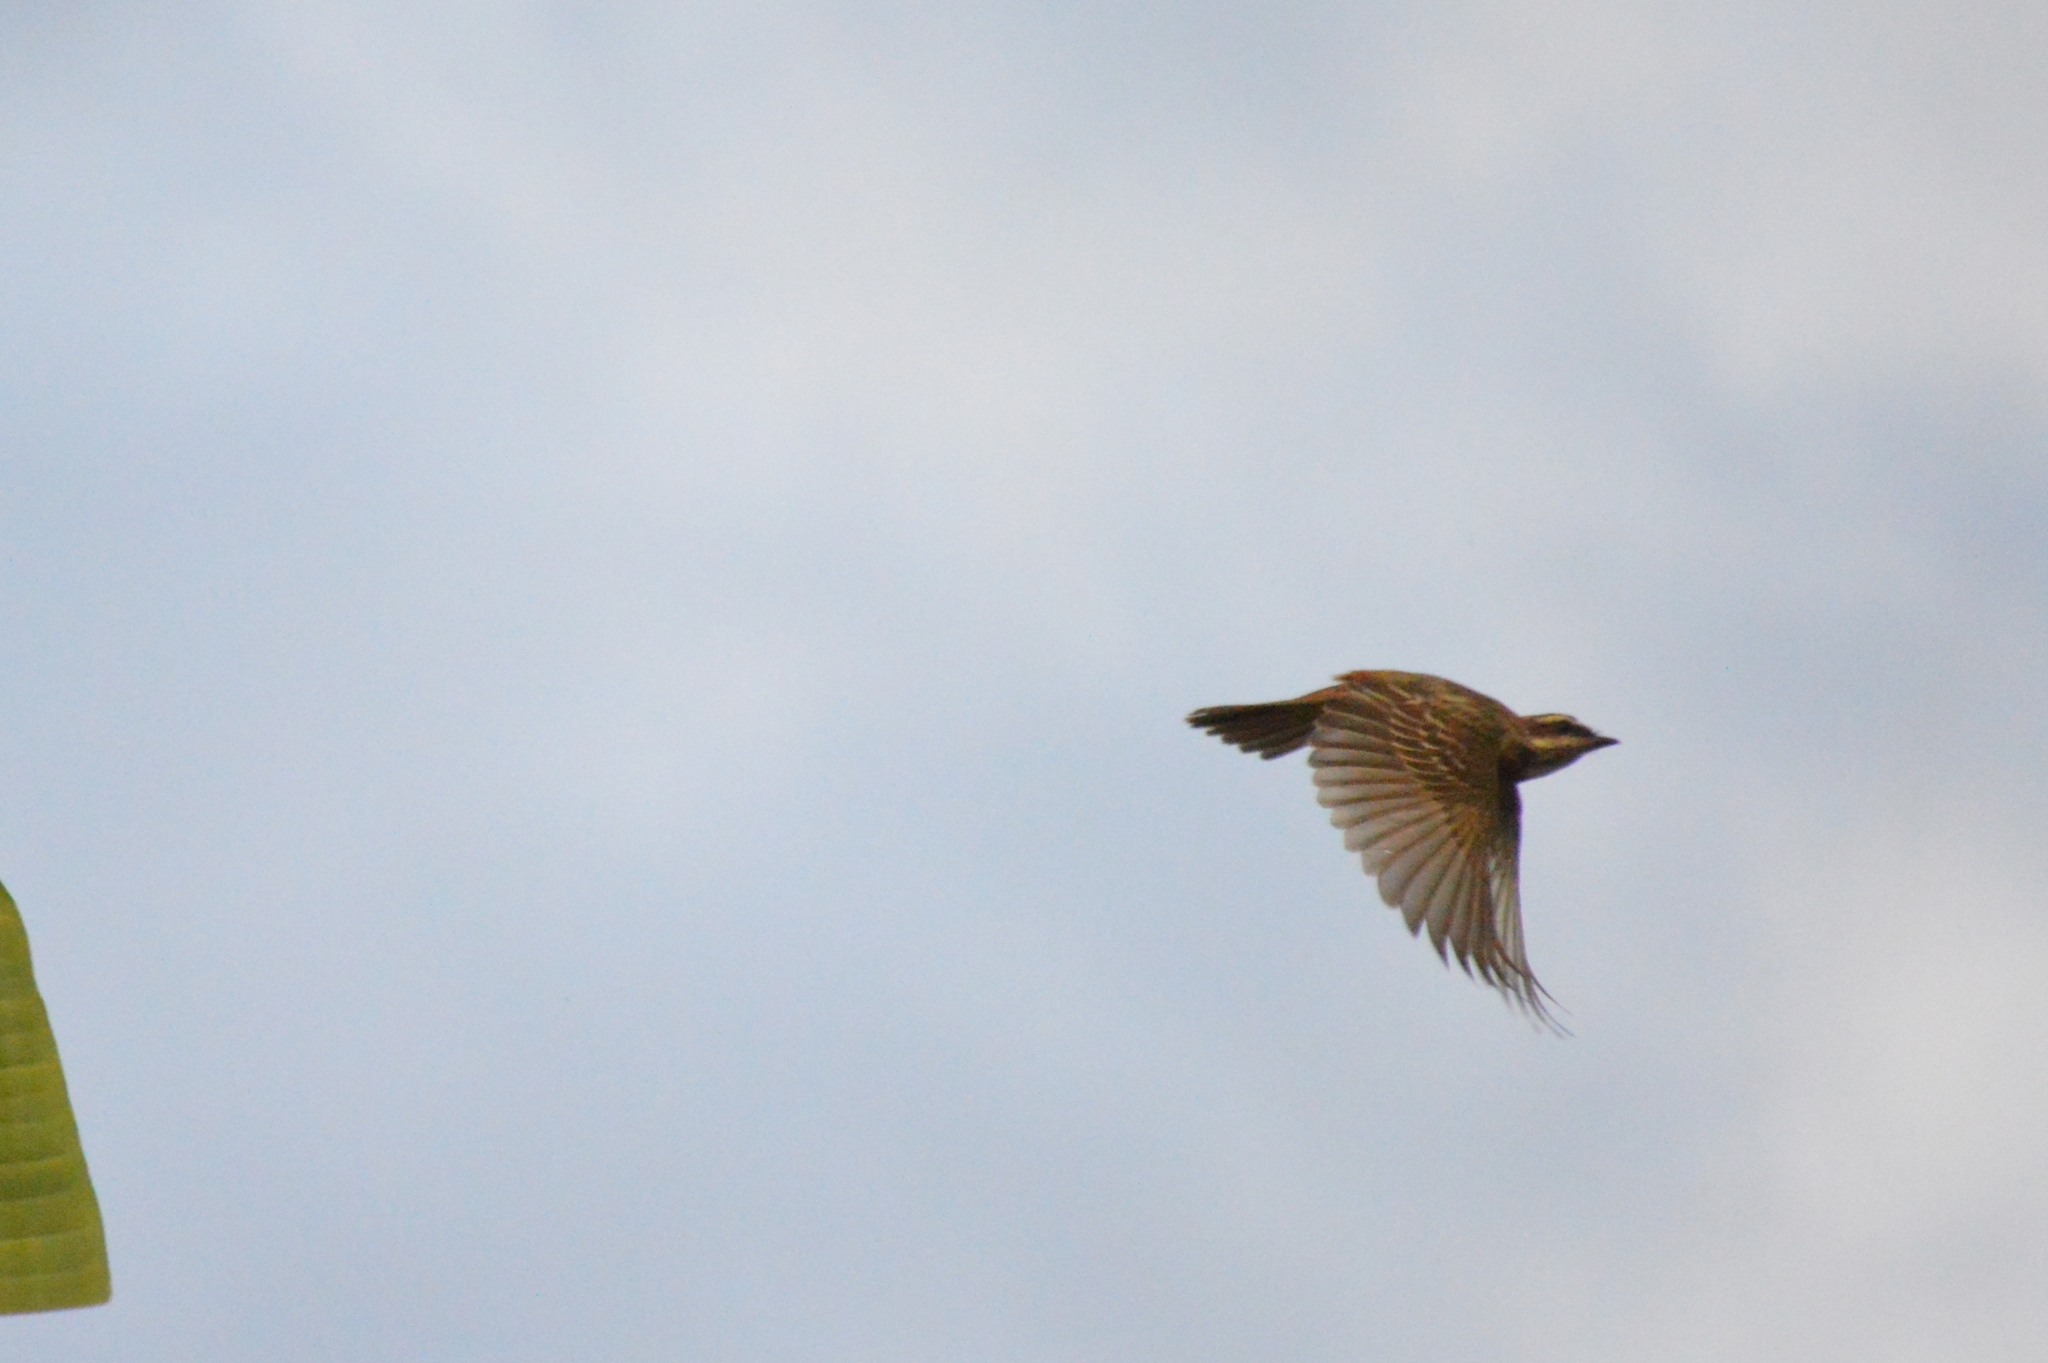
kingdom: Animalia
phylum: Chordata
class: Aves
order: Passeriformes
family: Tyrannidae
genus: Empidonomus
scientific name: Empidonomus varius
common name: Variegated flycatcher
